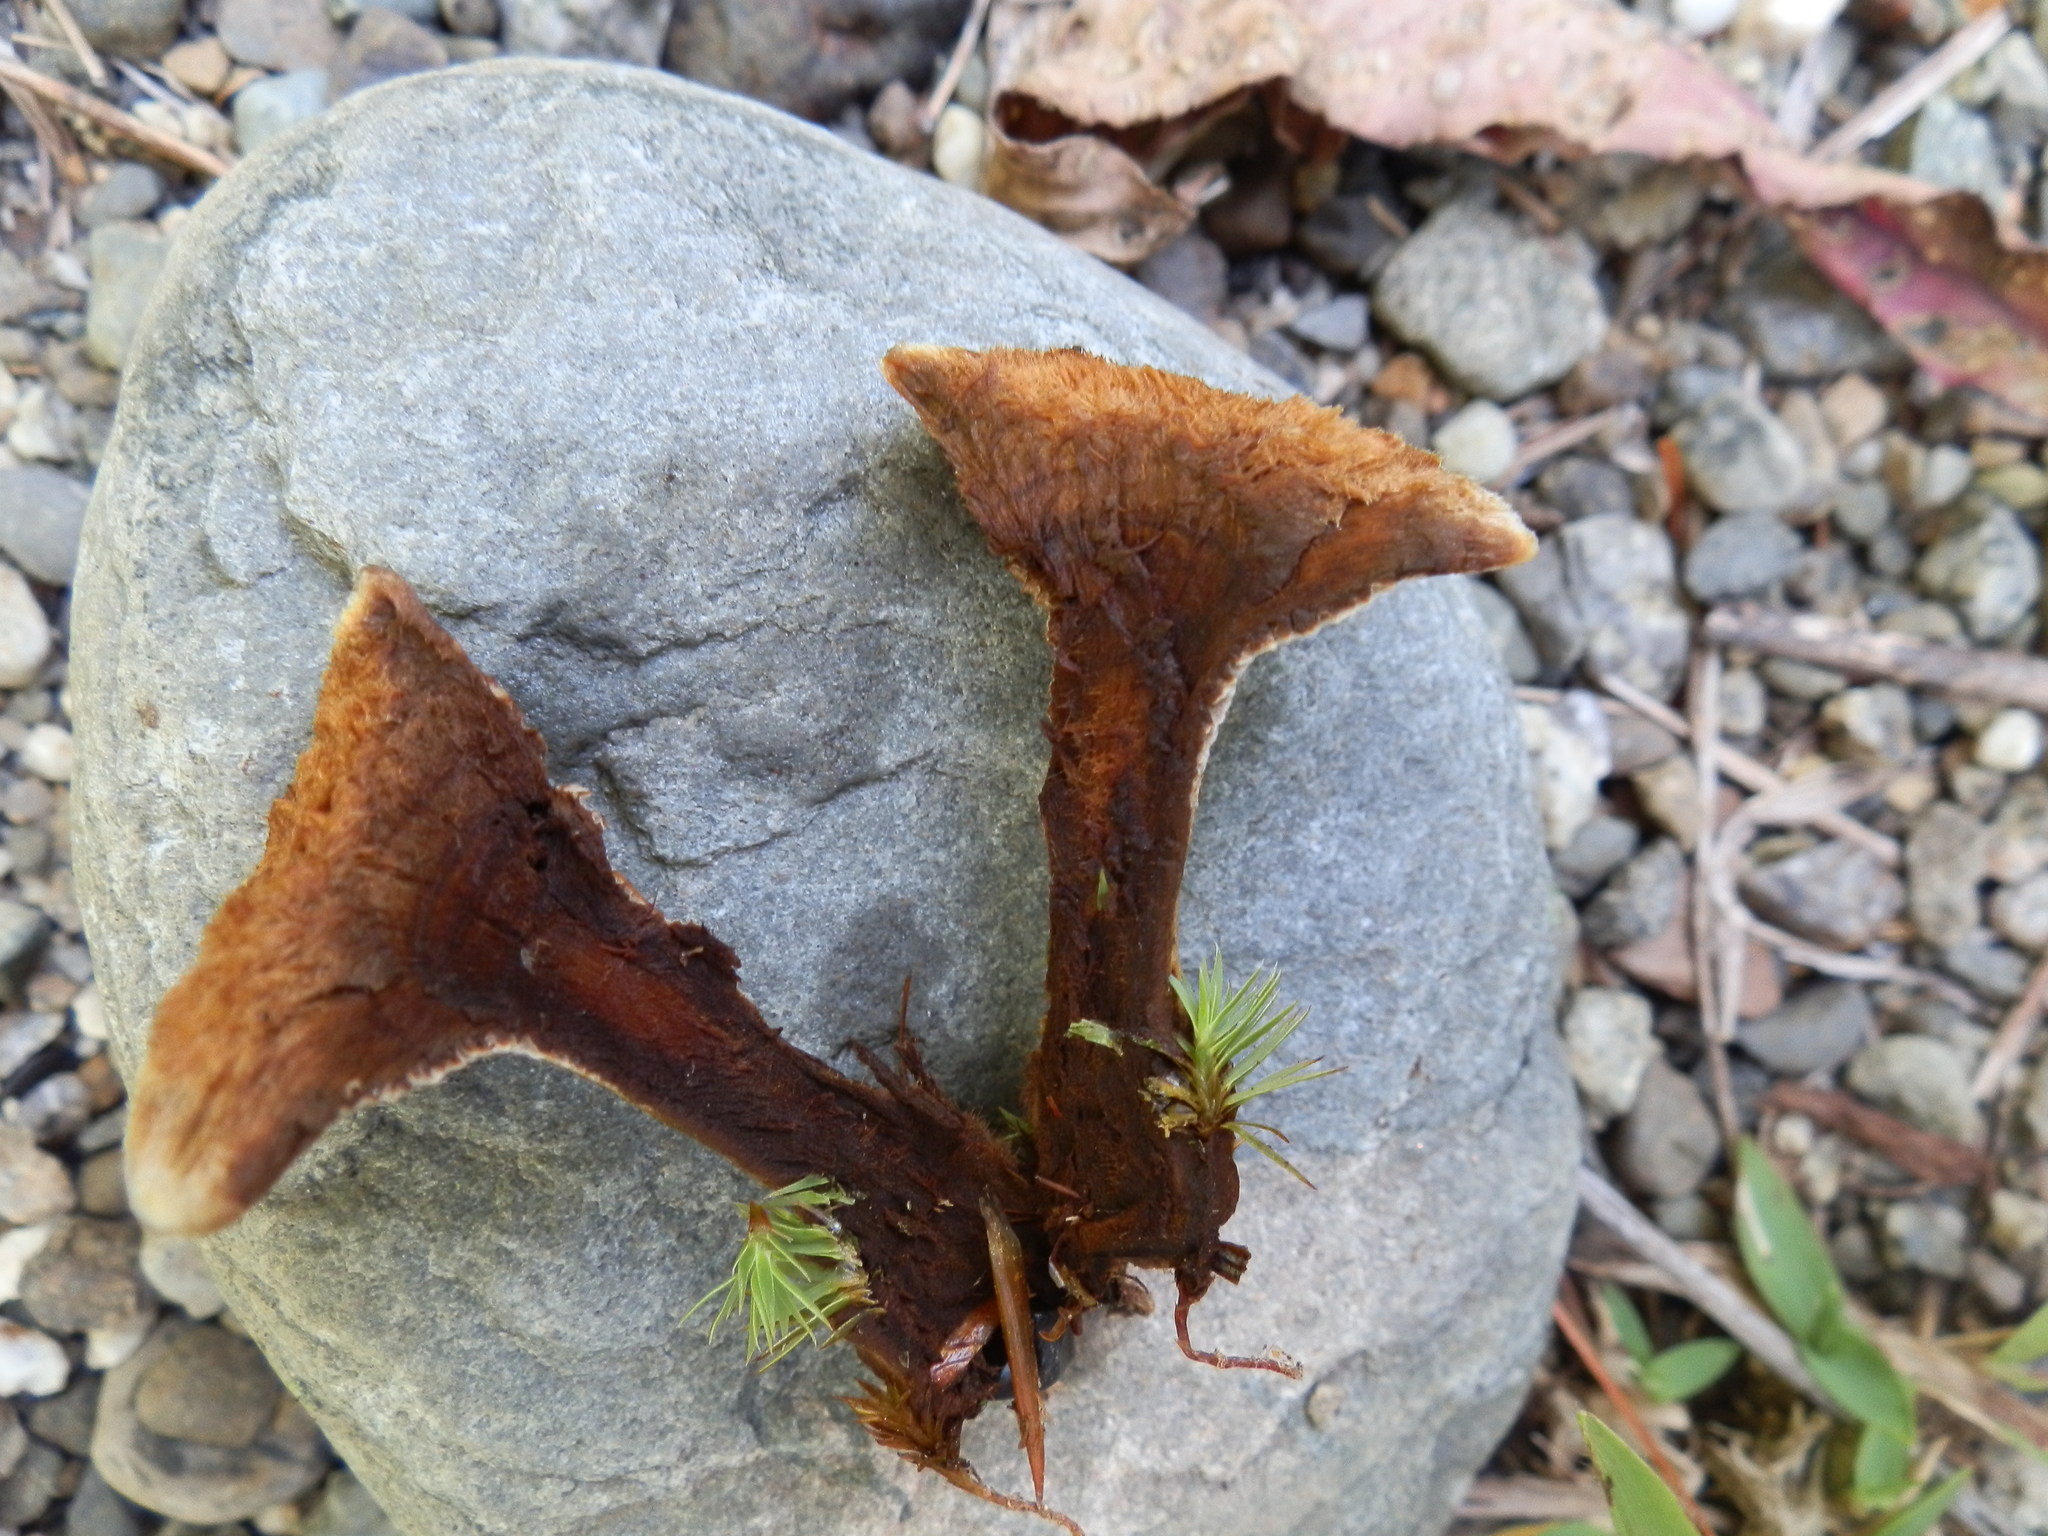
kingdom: Fungi
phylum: Basidiomycota
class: Agaricomycetes
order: Hymenochaetales
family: Hymenochaetaceae
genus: Coltricia
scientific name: Coltricia montagnei
